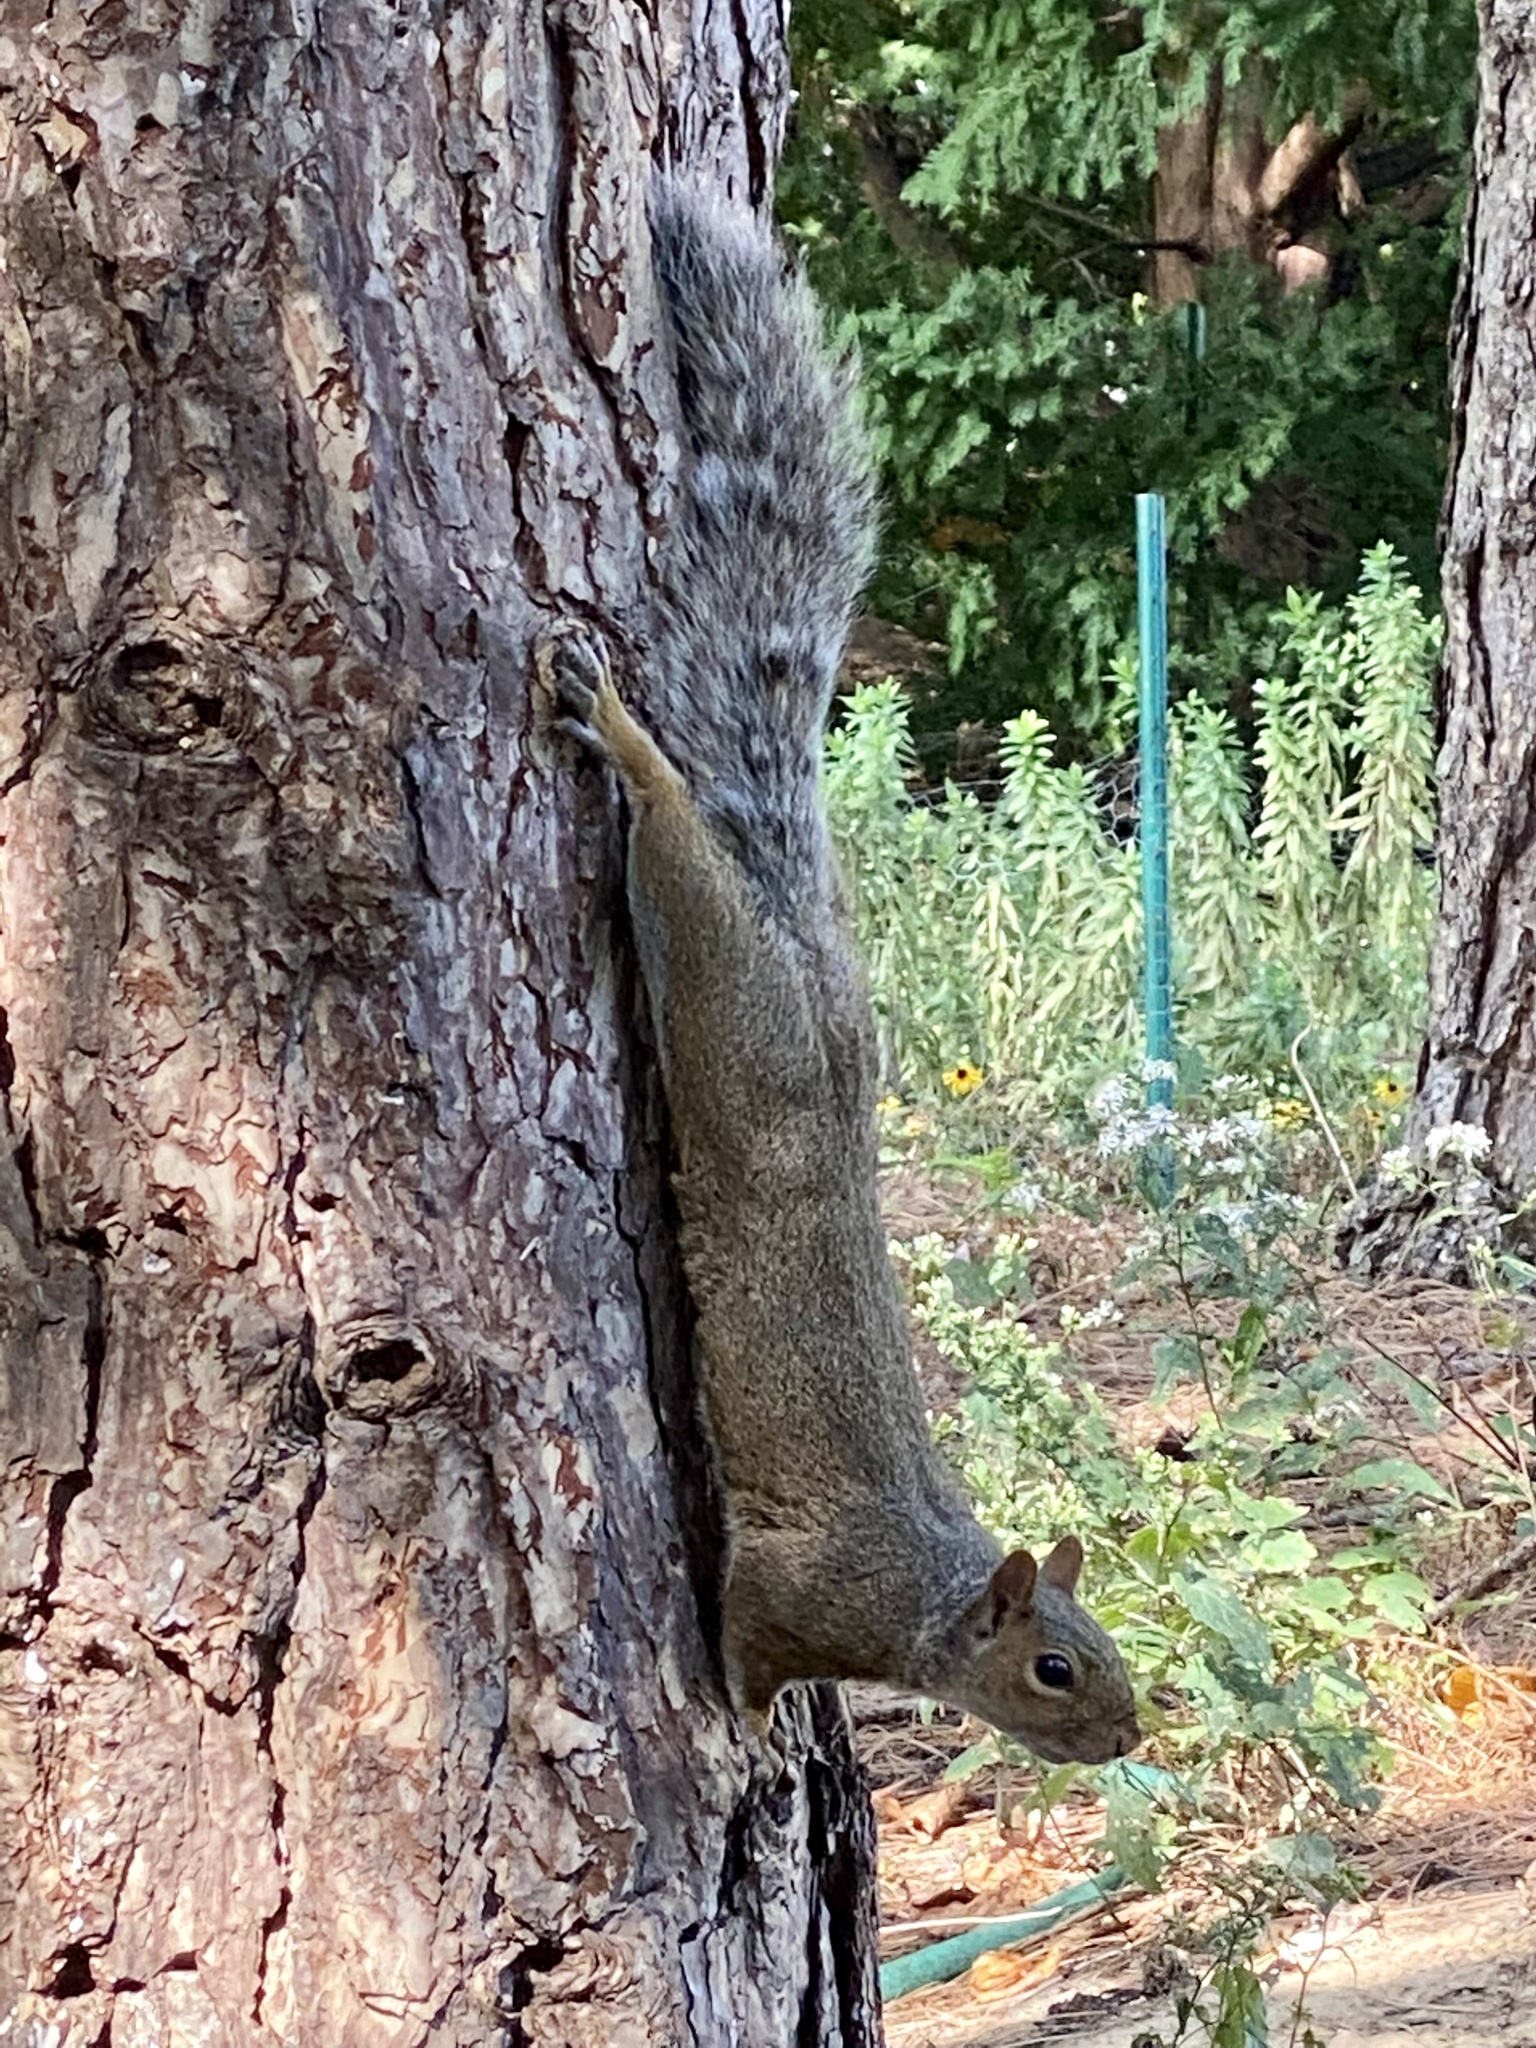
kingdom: Animalia
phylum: Chordata
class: Mammalia
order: Rodentia
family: Sciuridae
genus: Sciurus
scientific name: Sciurus carolinensis
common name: Eastern gray squirrel
